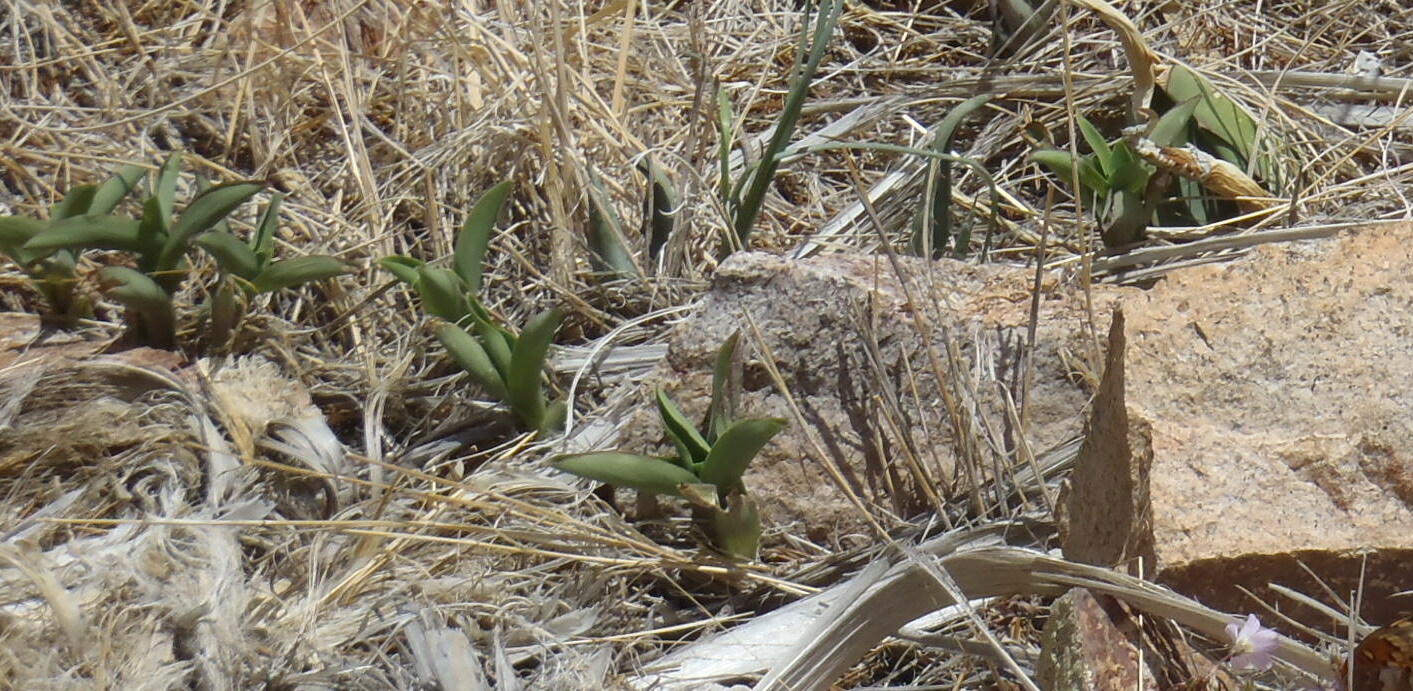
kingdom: Plantae
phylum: Tracheophyta
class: Liliopsida
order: Commelinales
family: Commelinaceae
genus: Tradescantia
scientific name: Tradescantia brevifolia
